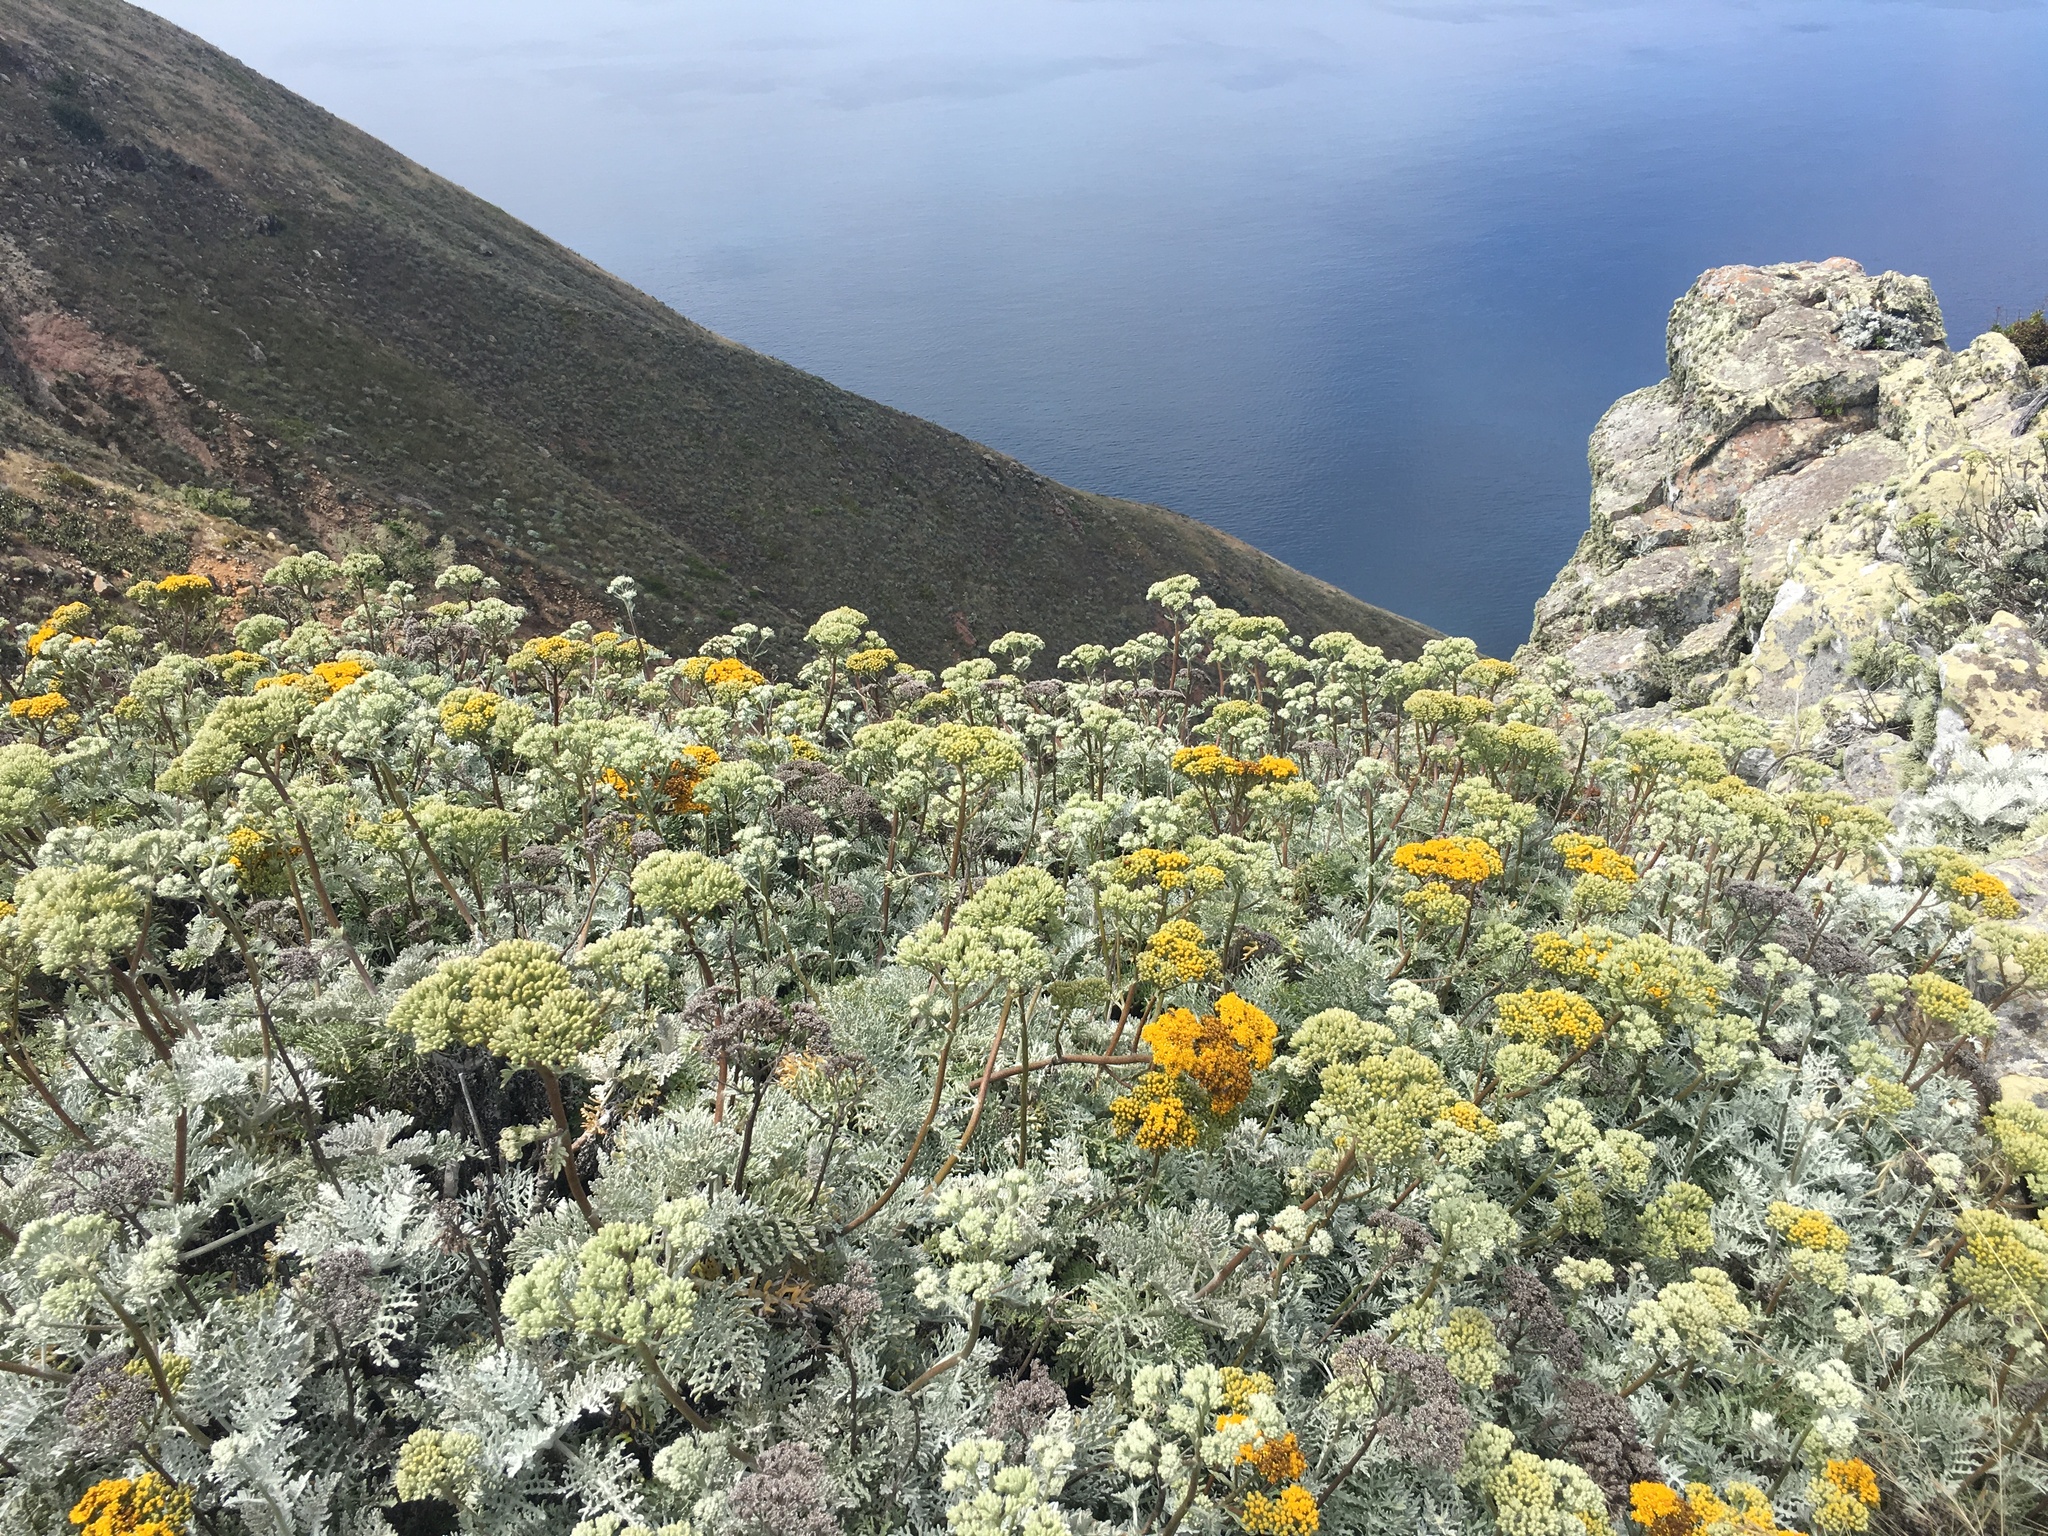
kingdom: Plantae
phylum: Tracheophyta
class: Magnoliopsida
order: Asterales
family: Asteraceae
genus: Constancea
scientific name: Constancea nevinii
